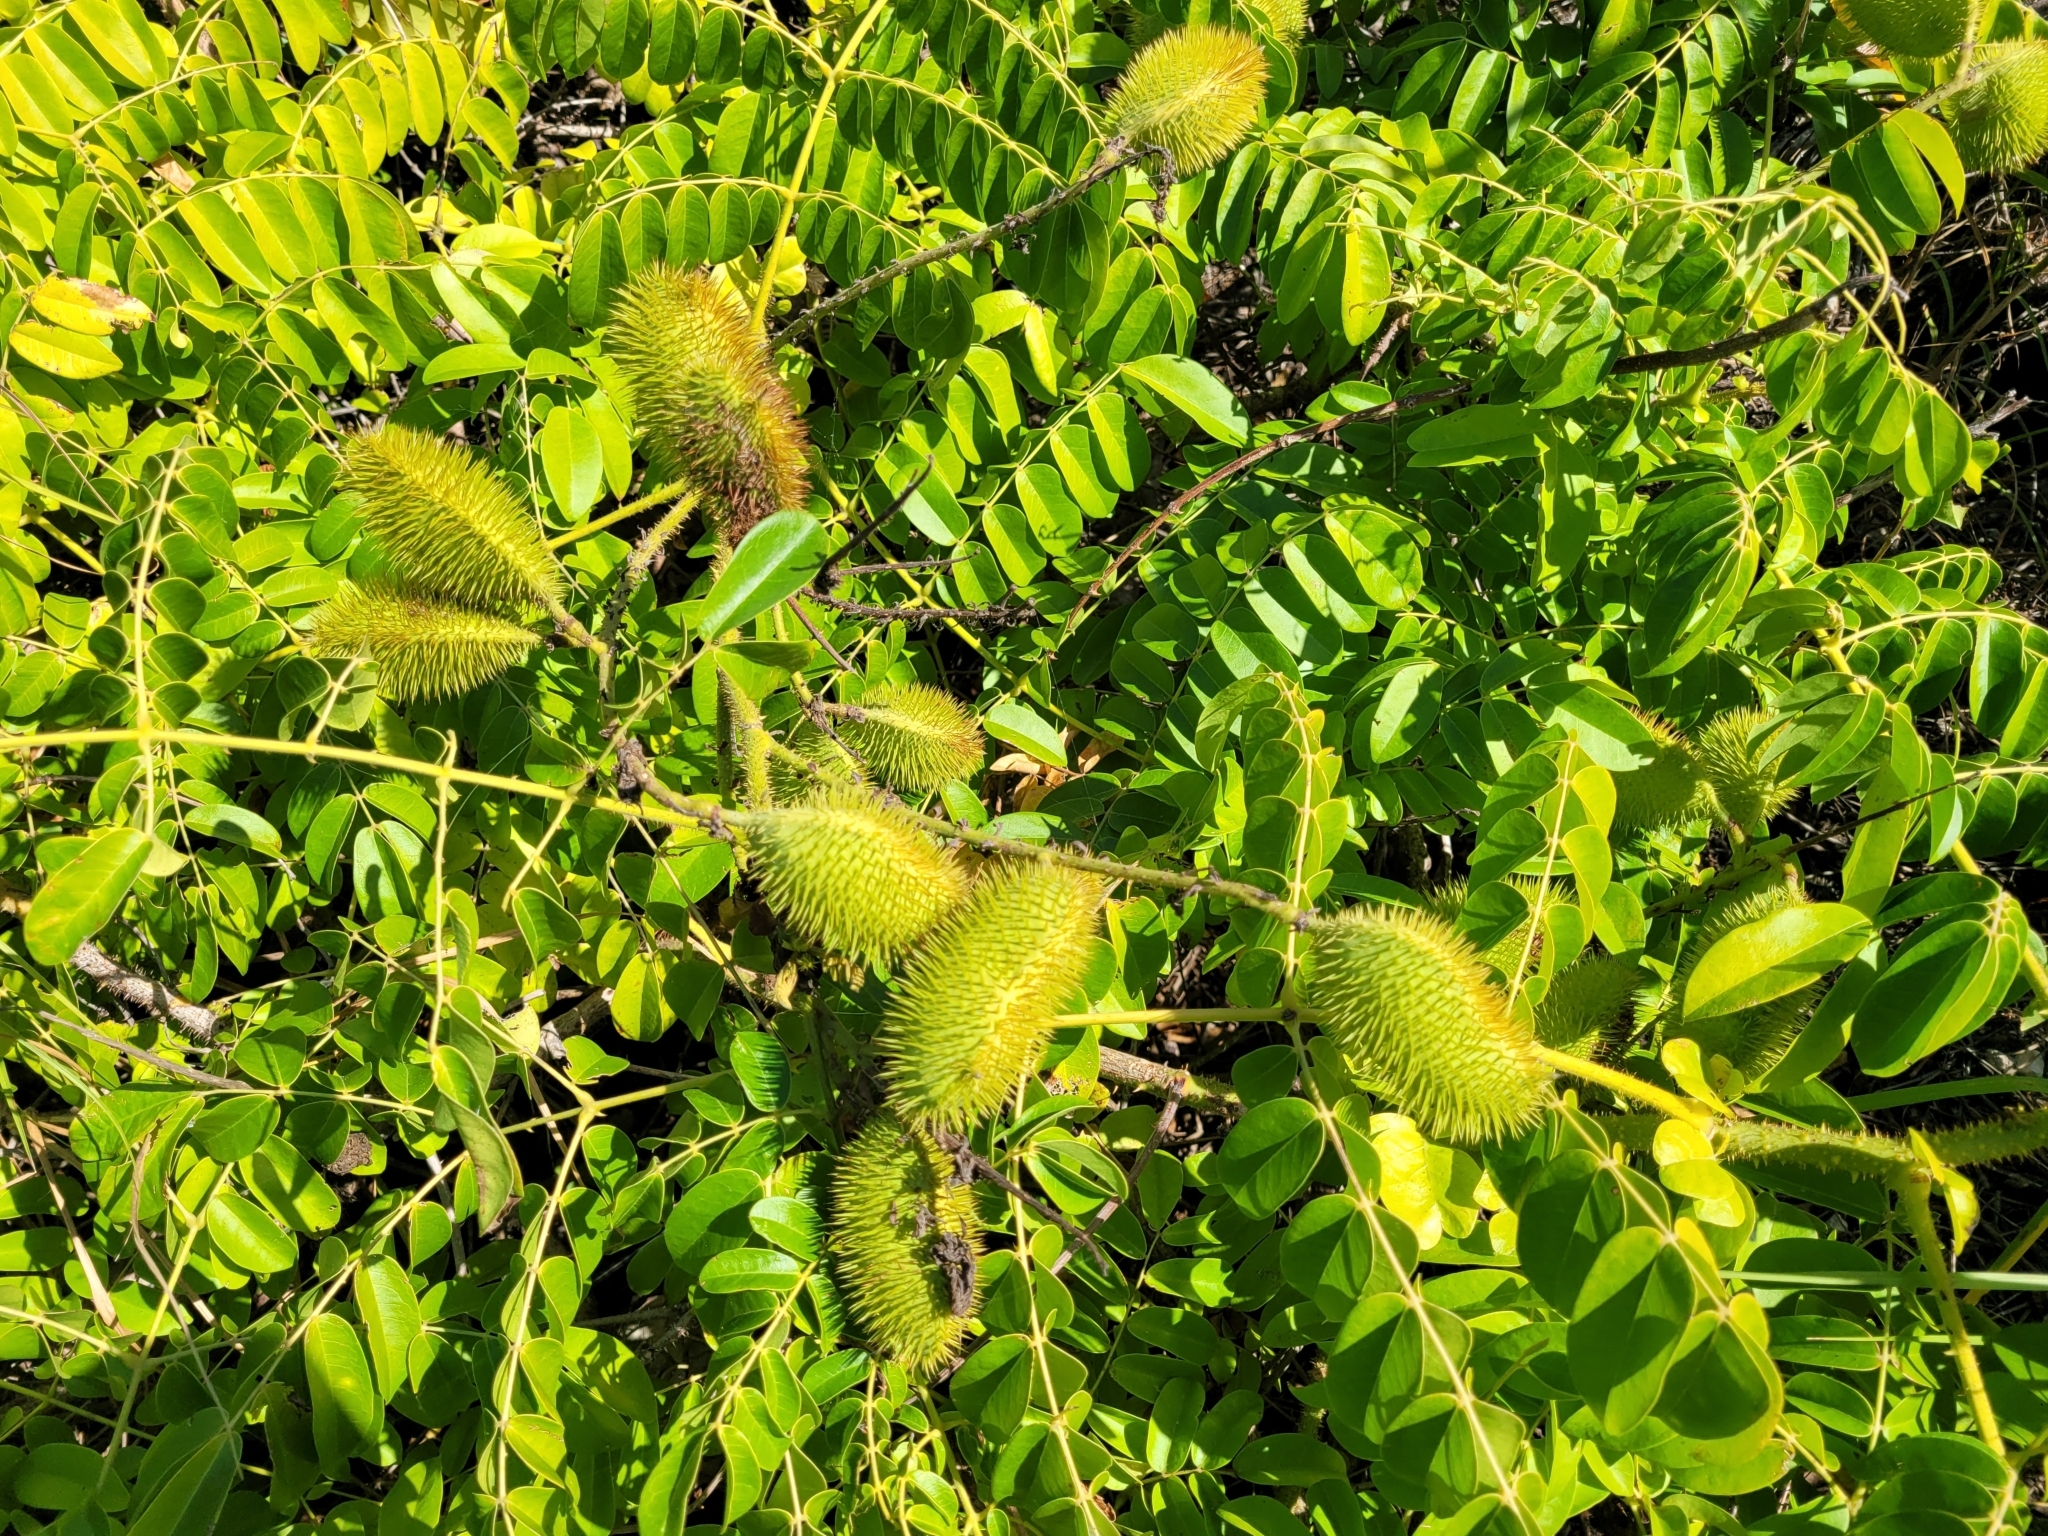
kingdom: Plantae
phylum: Tracheophyta
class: Magnoliopsida
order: Fabales
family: Fabaceae
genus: Guilandina
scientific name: Guilandina bonduc
